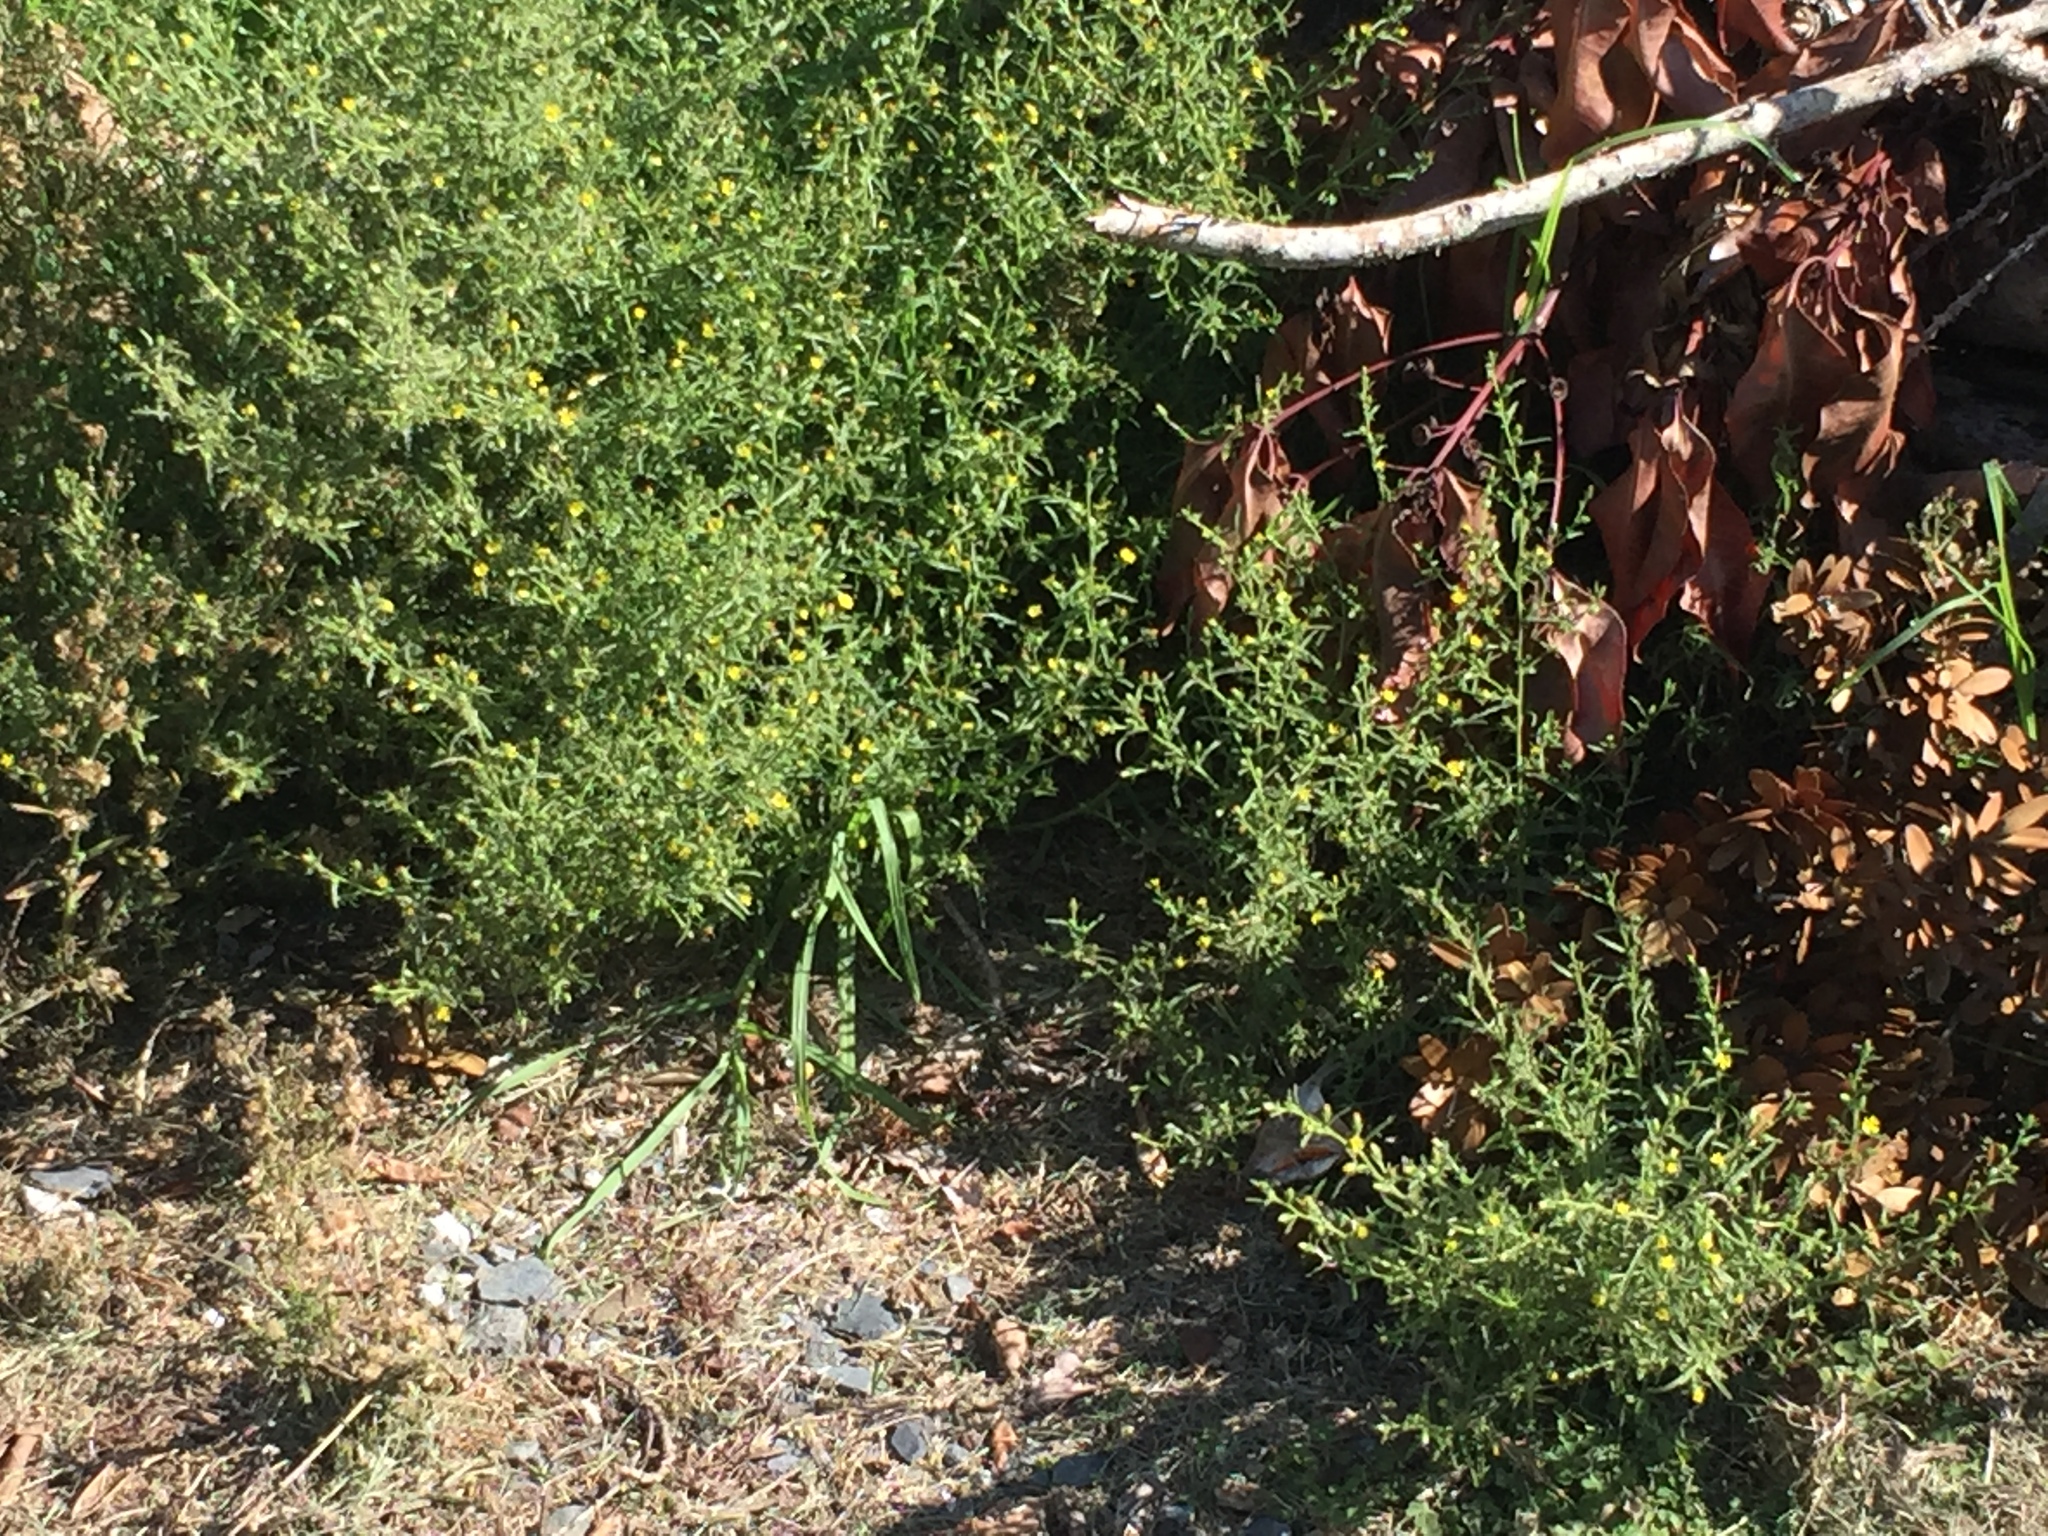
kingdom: Plantae
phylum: Tracheophyta
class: Magnoliopsida
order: Asterales
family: Asteraceae
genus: Dittrichia
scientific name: Dittrichia graveolens
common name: Stinking fleabane
